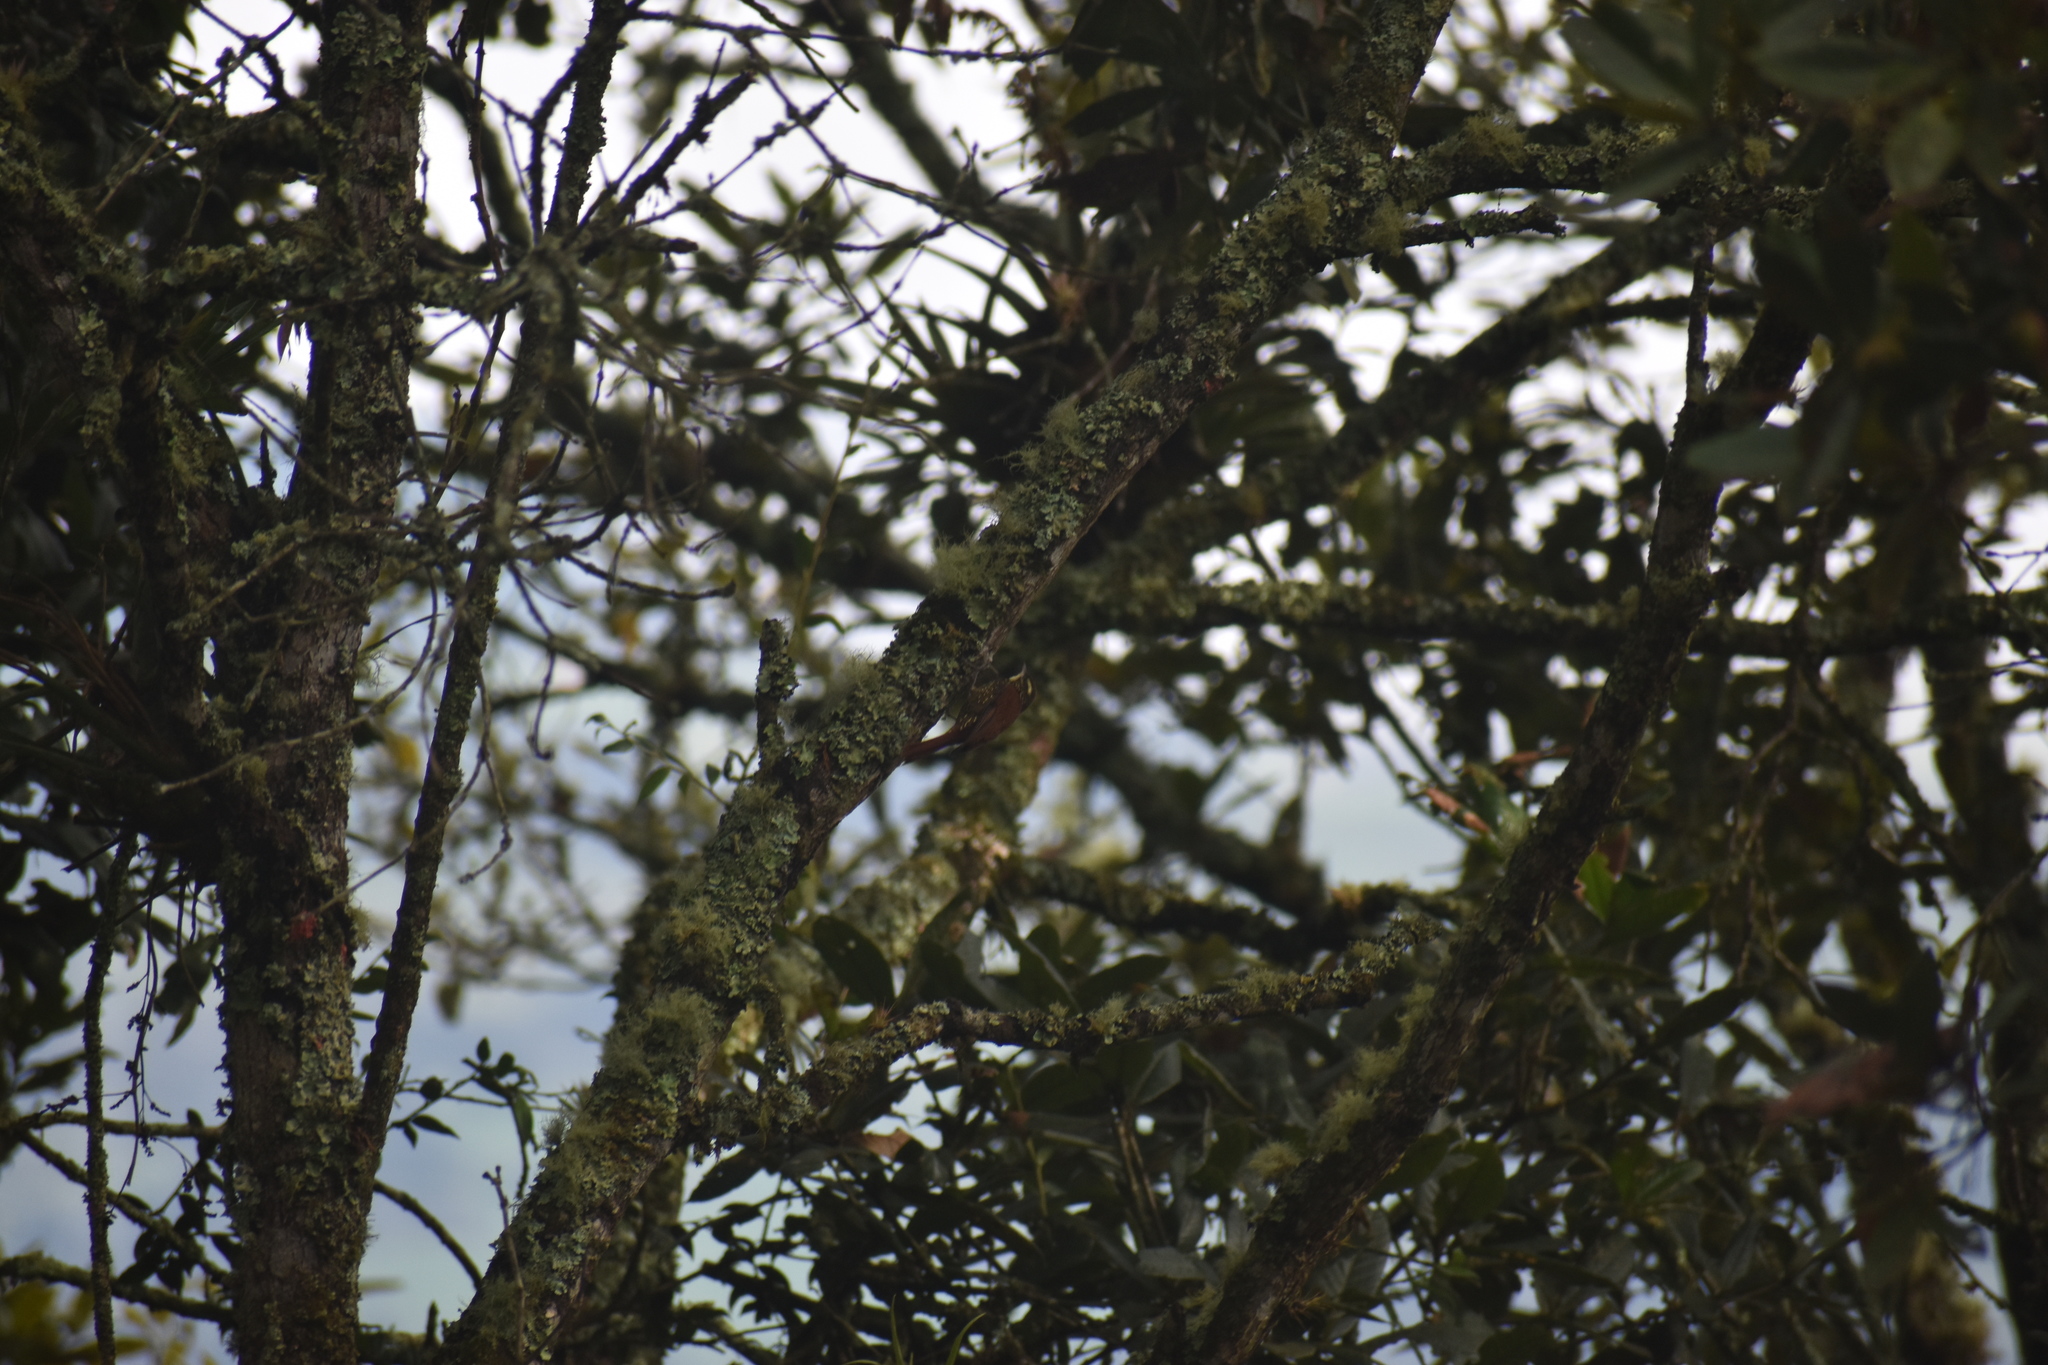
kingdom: Animalia
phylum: Chordata
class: Aves
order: Passeriformes
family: Furnariidae
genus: Xenops
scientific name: Xenops rutilans
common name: Streaked xenops
